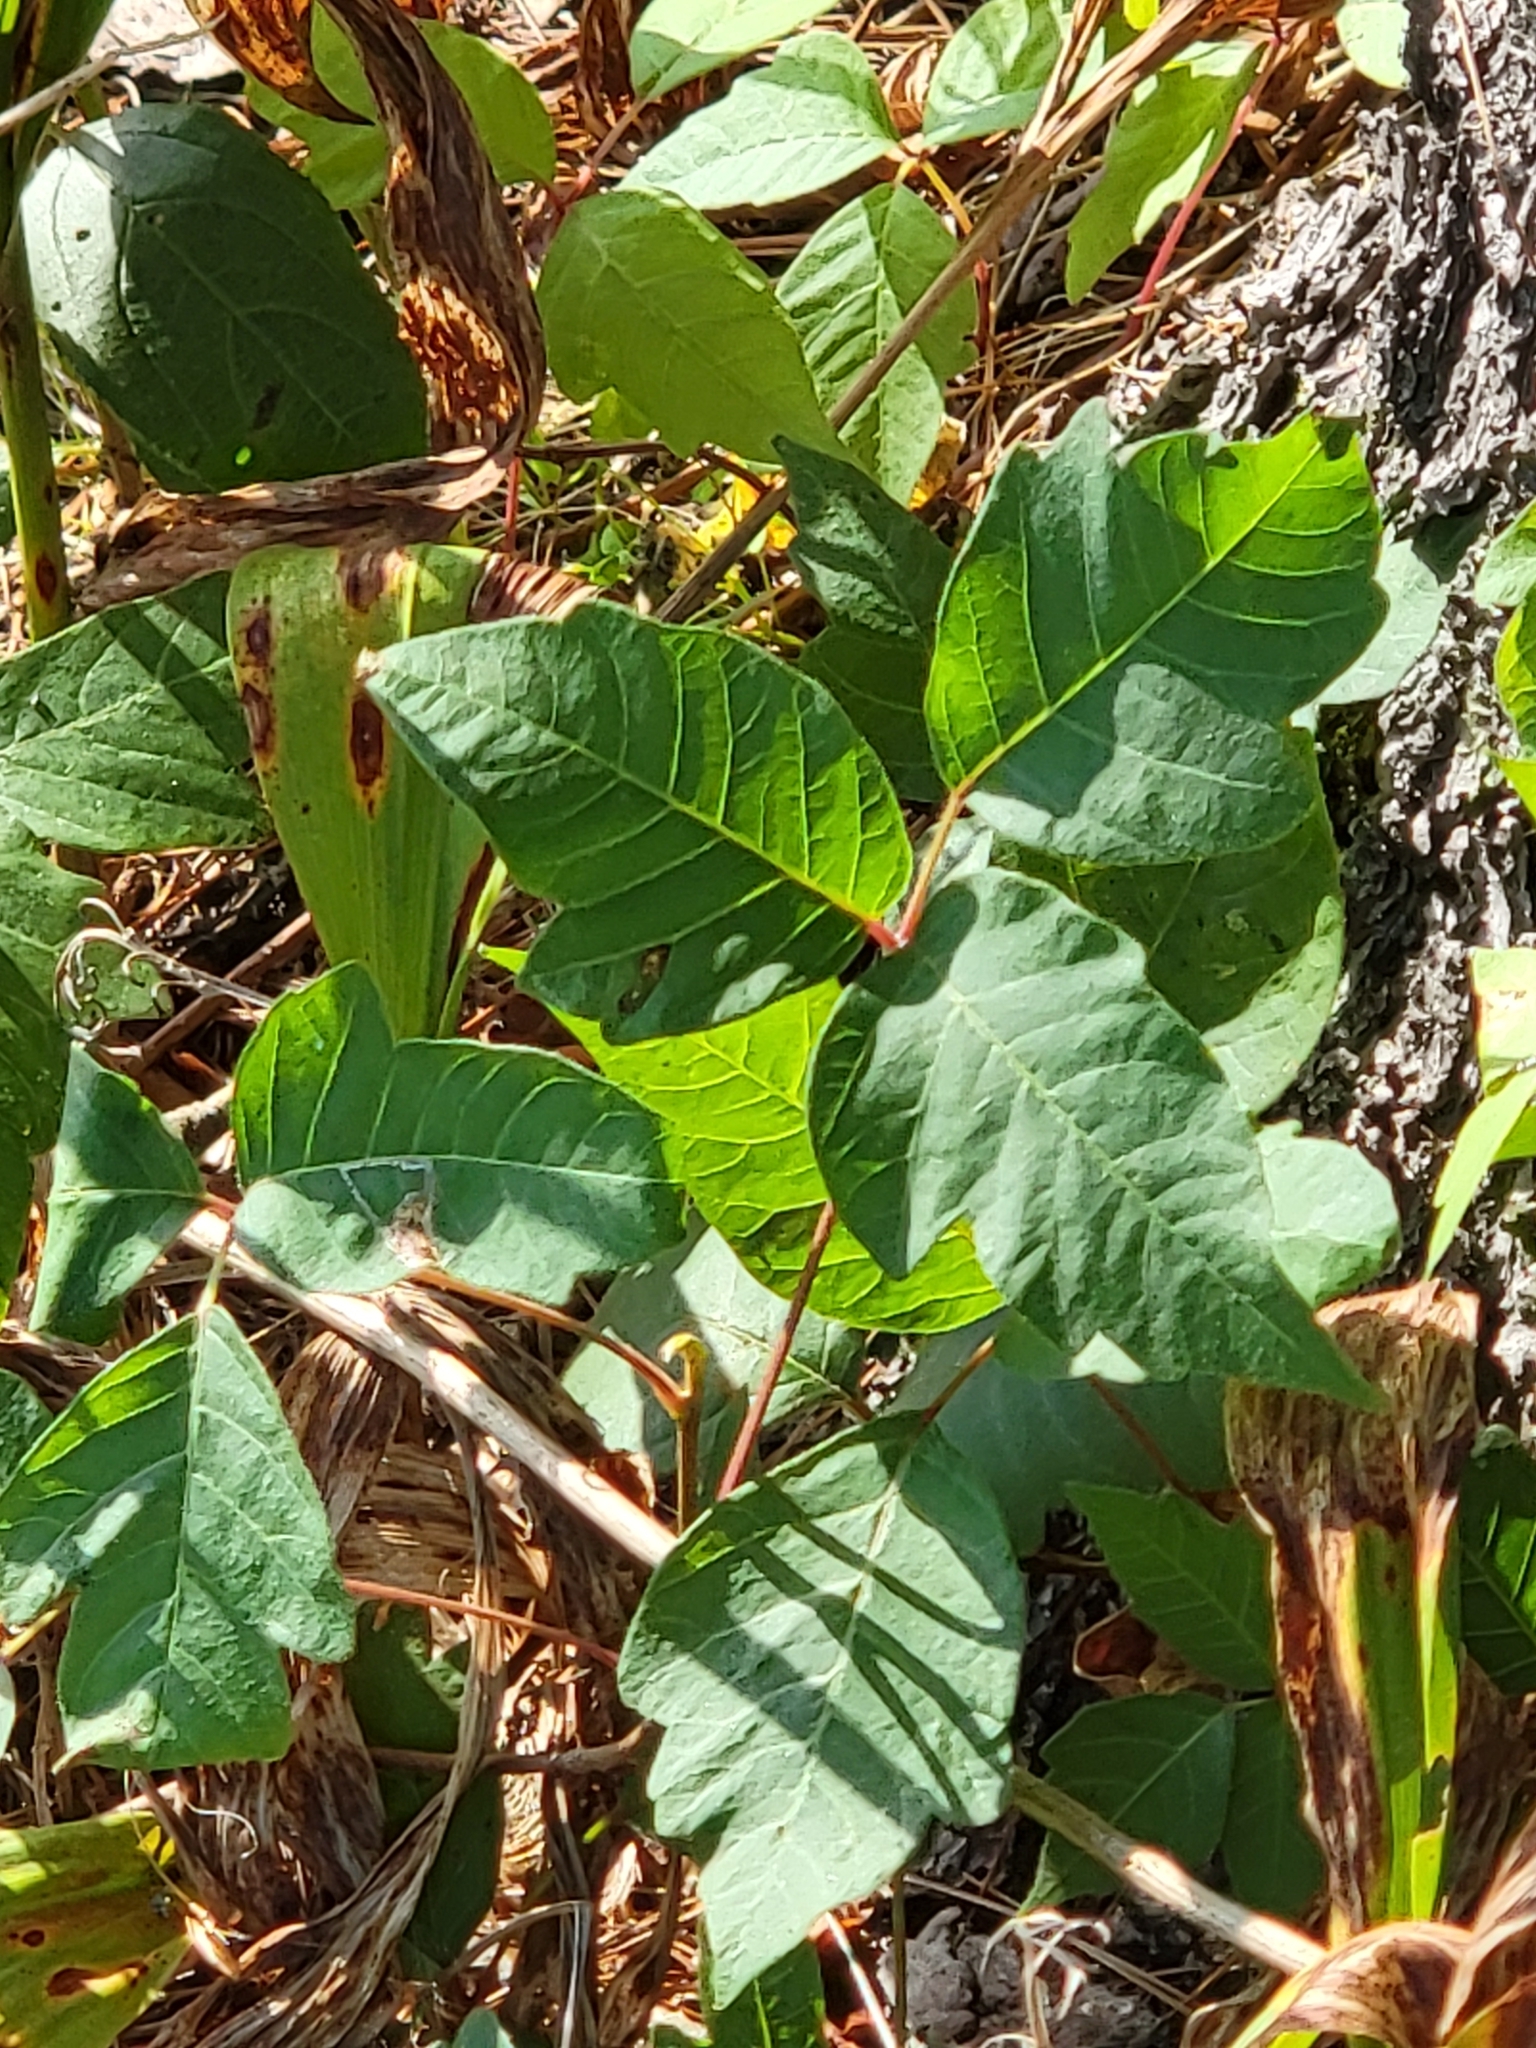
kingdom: Plantae
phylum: Tracheophyta
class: Magnoliopsida
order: Sapindales
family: Anacardiaceae
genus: Toxicodendron
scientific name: Toxicodendron radicans
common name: Poison ivy
